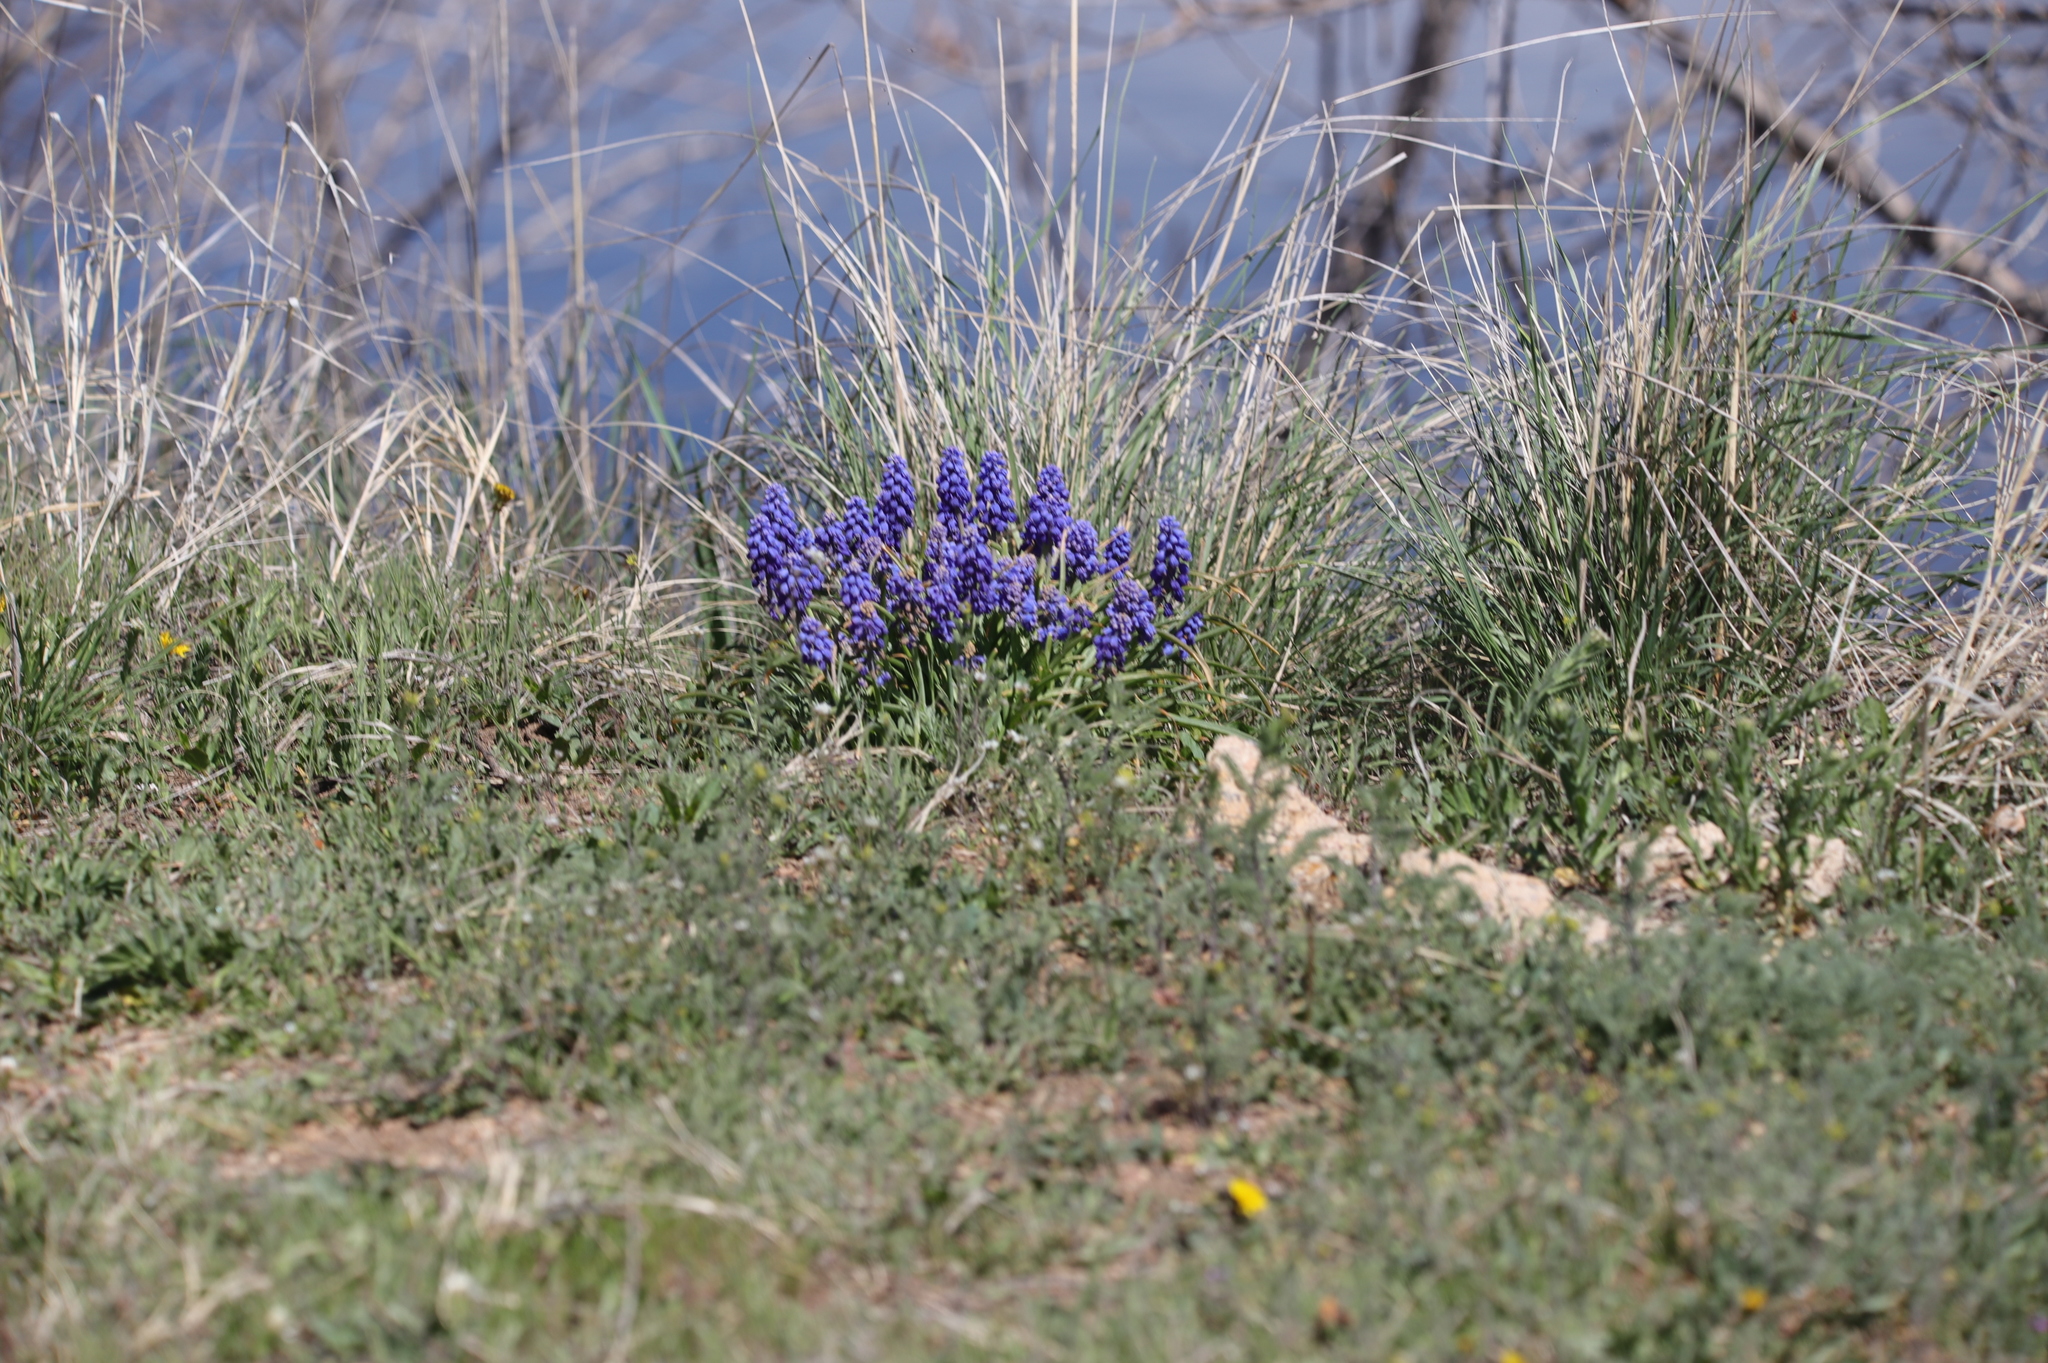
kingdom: Plantae
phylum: Tracheophyta
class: Liliopsida
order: Asparagales
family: Asparagaceae
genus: Muscari
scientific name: Muscari neglectum
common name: Grape-hyacinth
